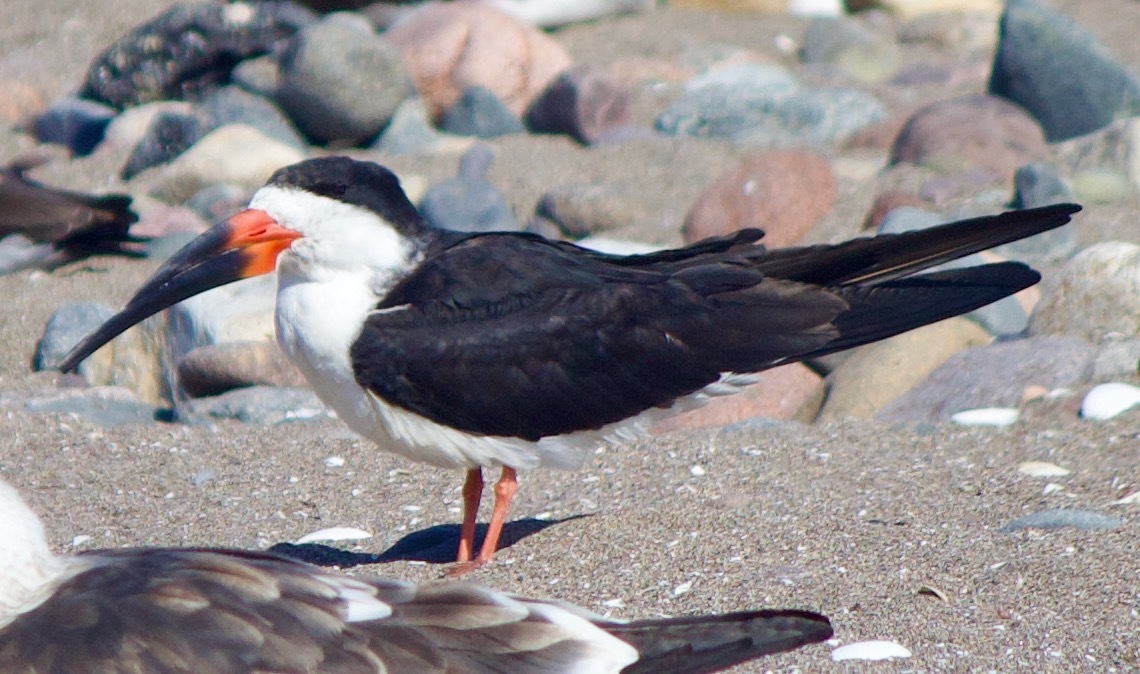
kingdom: Animalia
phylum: Chordata
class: Aves
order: Charadriiformes
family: Laridae
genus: Rynchops
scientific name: Rynchops niger
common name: Black skimmer
